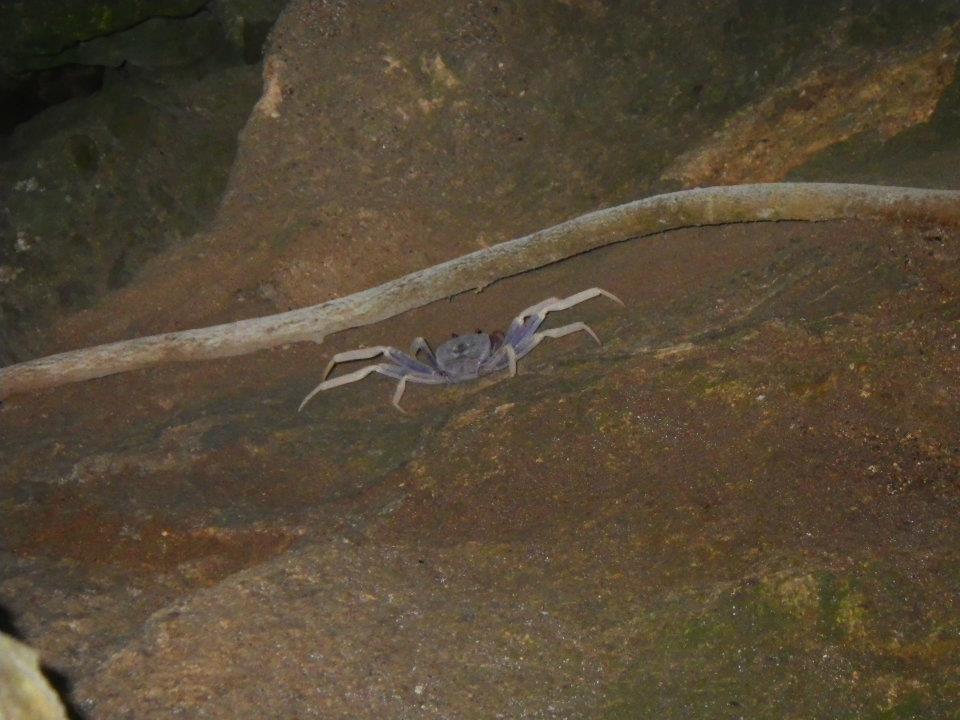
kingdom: Animalia
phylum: Arthropoda
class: Malacostraca
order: Decapoda
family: Gecarcinidae
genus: Discoplax
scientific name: Discoplax michalis
